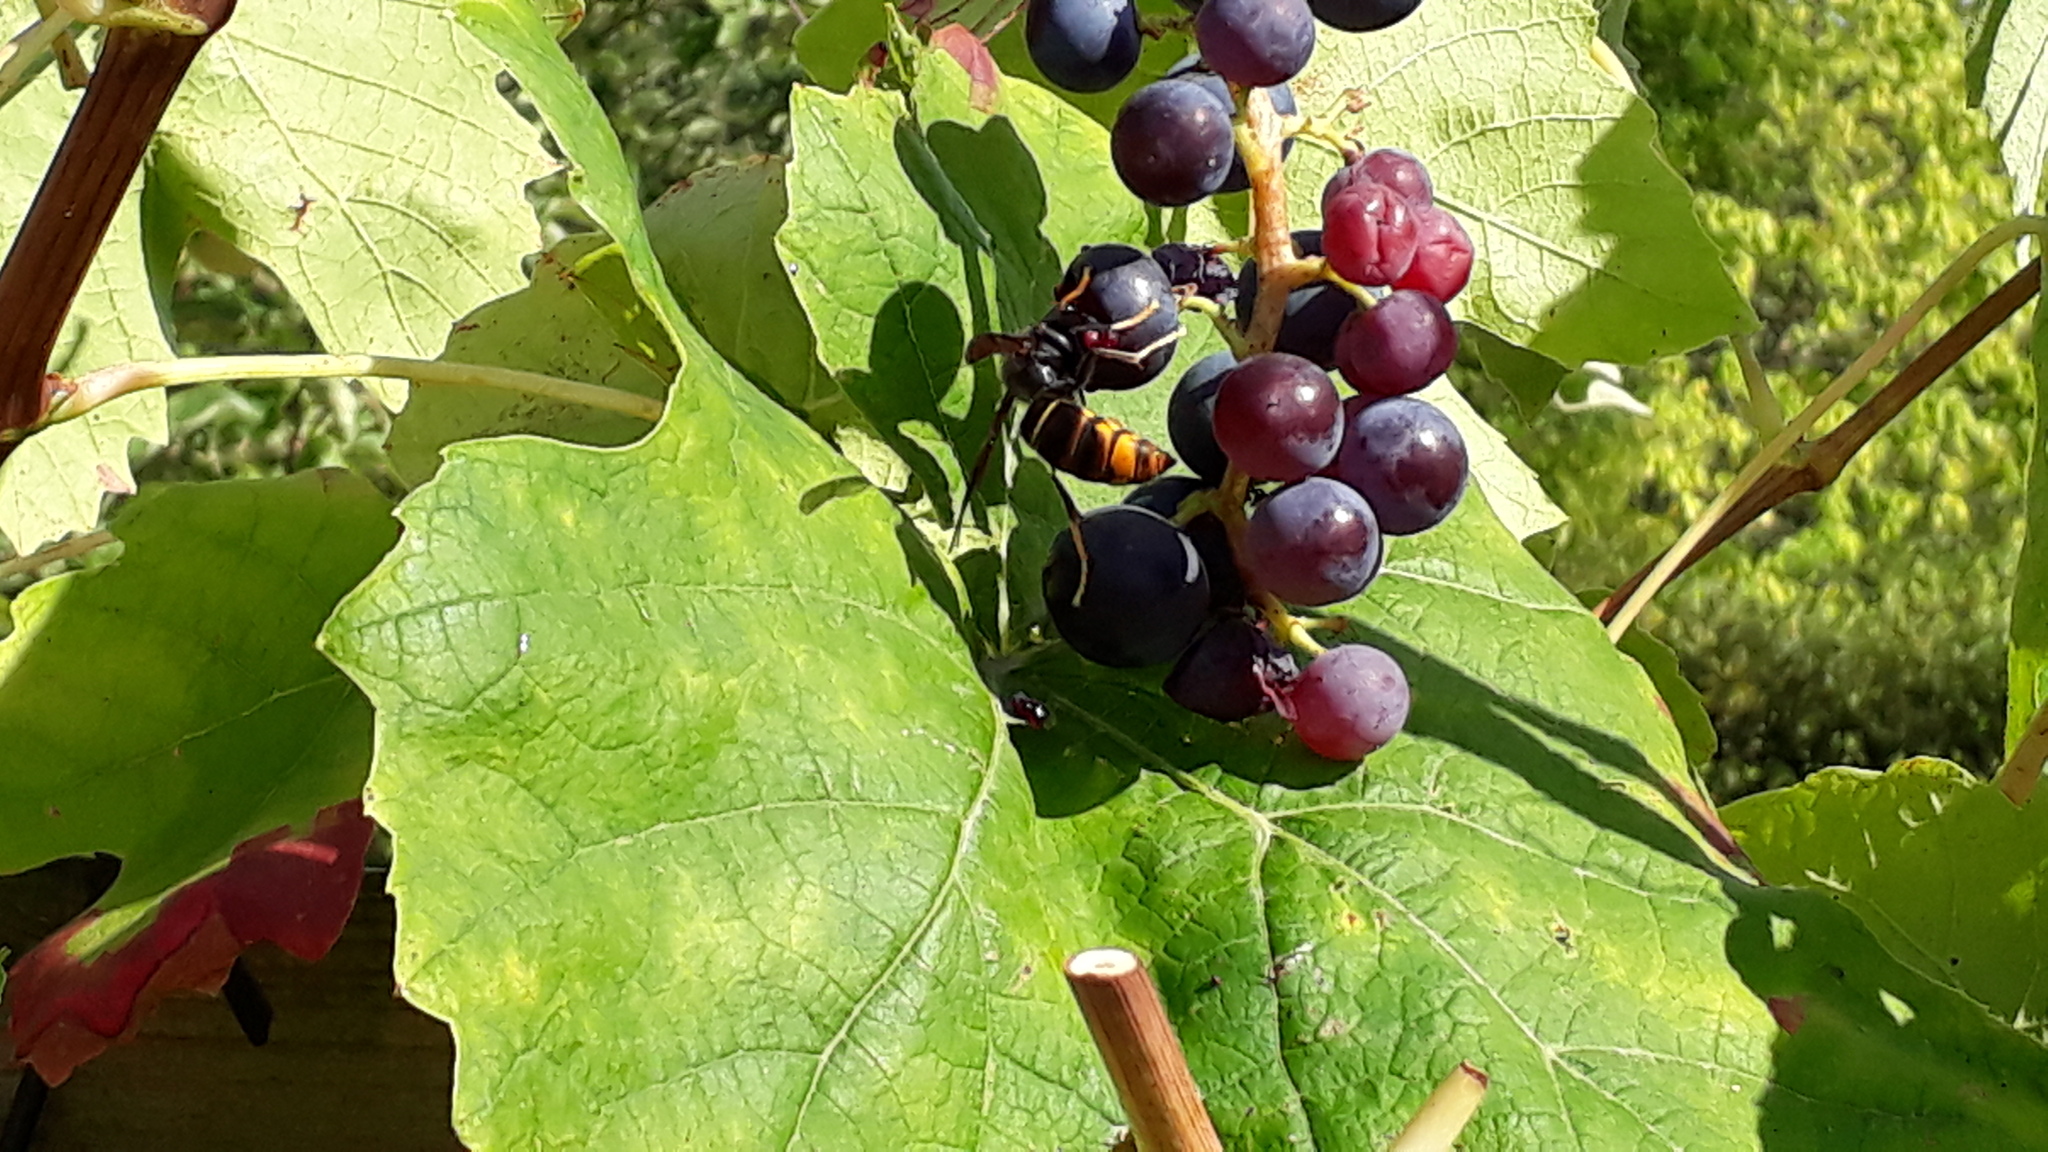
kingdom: Animalia
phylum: Arthropoda
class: Insecta
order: Hymenoptera
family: Vespidae
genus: Vespa
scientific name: Vespa velutina
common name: Asian hornet
